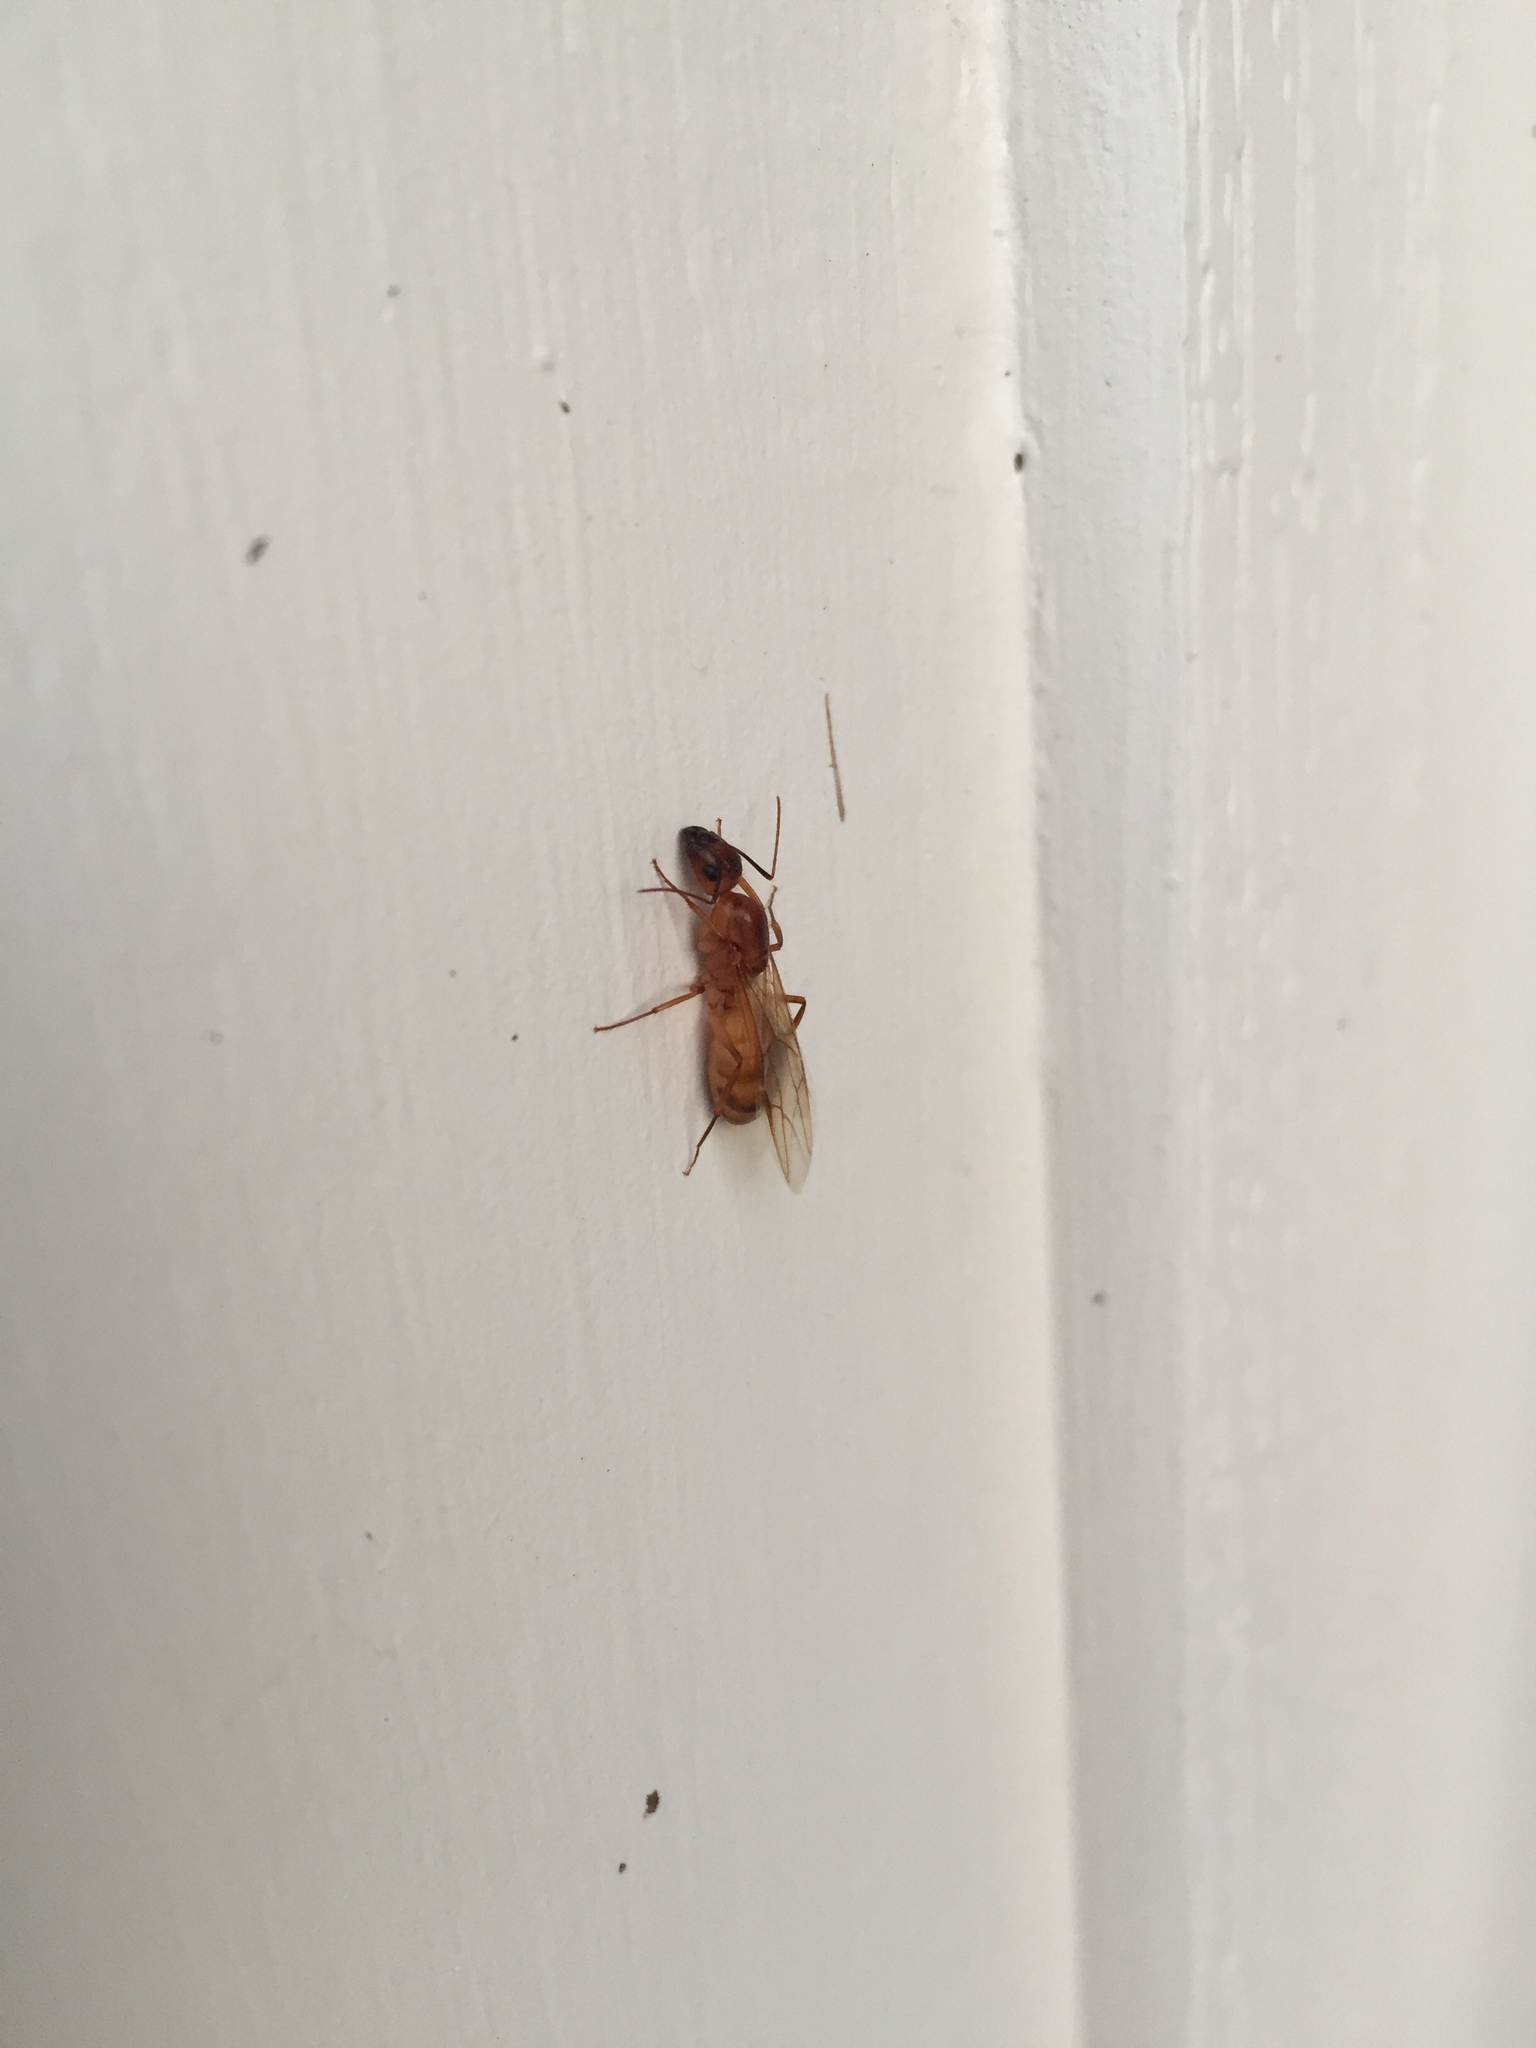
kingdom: Animalia
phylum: Arthropoda
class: Insecta
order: Hymenoptera
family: Formicidae
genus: Camponotus
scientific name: Camponotus festinatus
